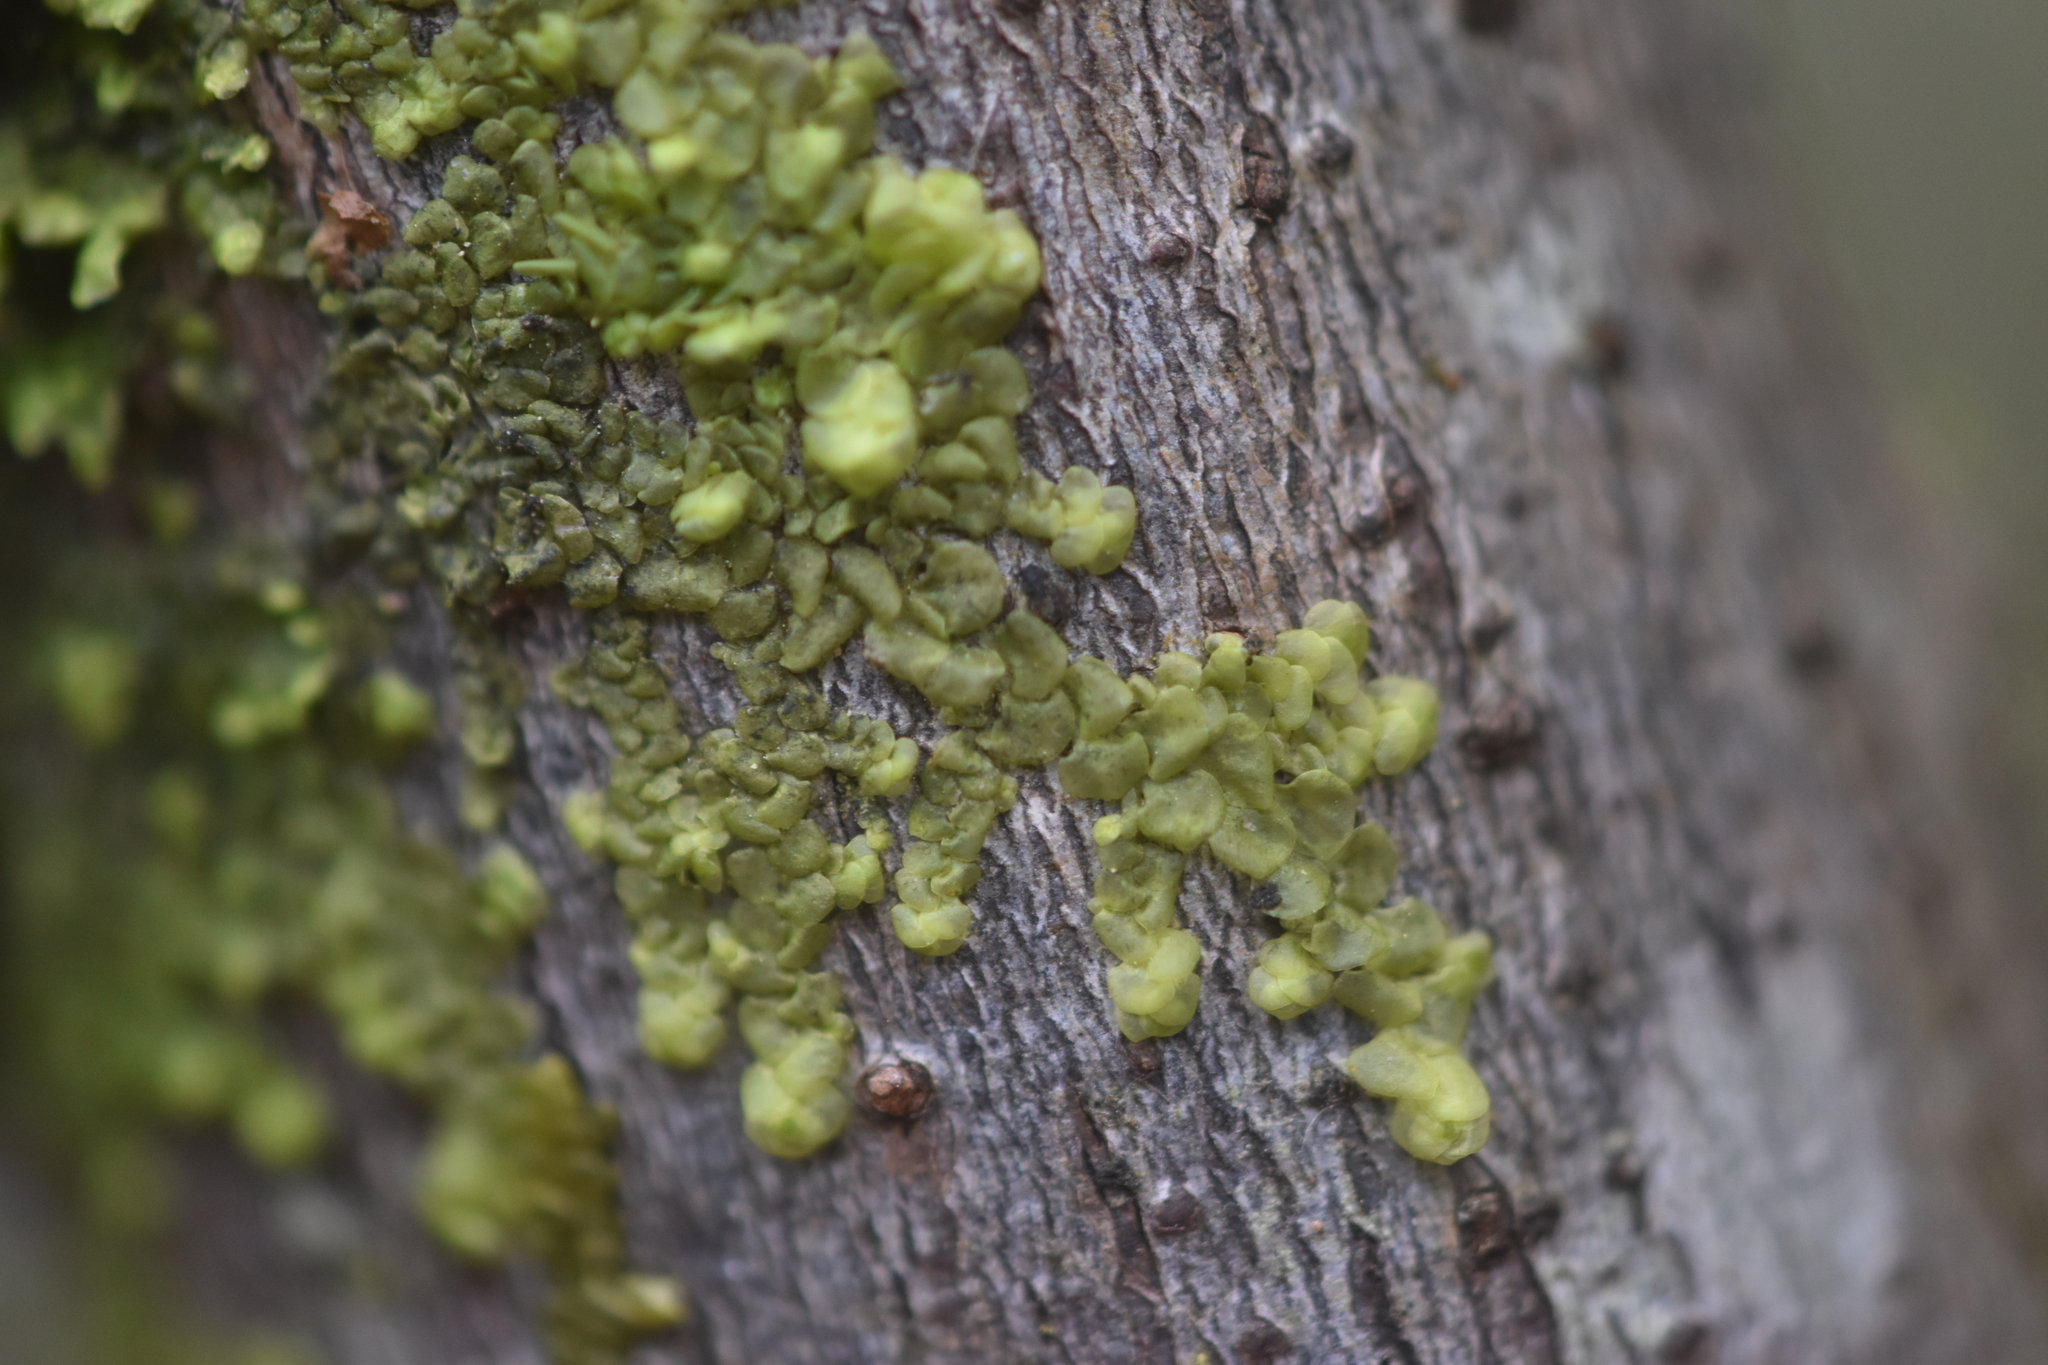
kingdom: Plantae
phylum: Marchantiophyta
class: Jungermanniopsida
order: Porellales
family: Radulaceae
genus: Radula
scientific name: Radula complanata
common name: Flat-leaved scalewort
